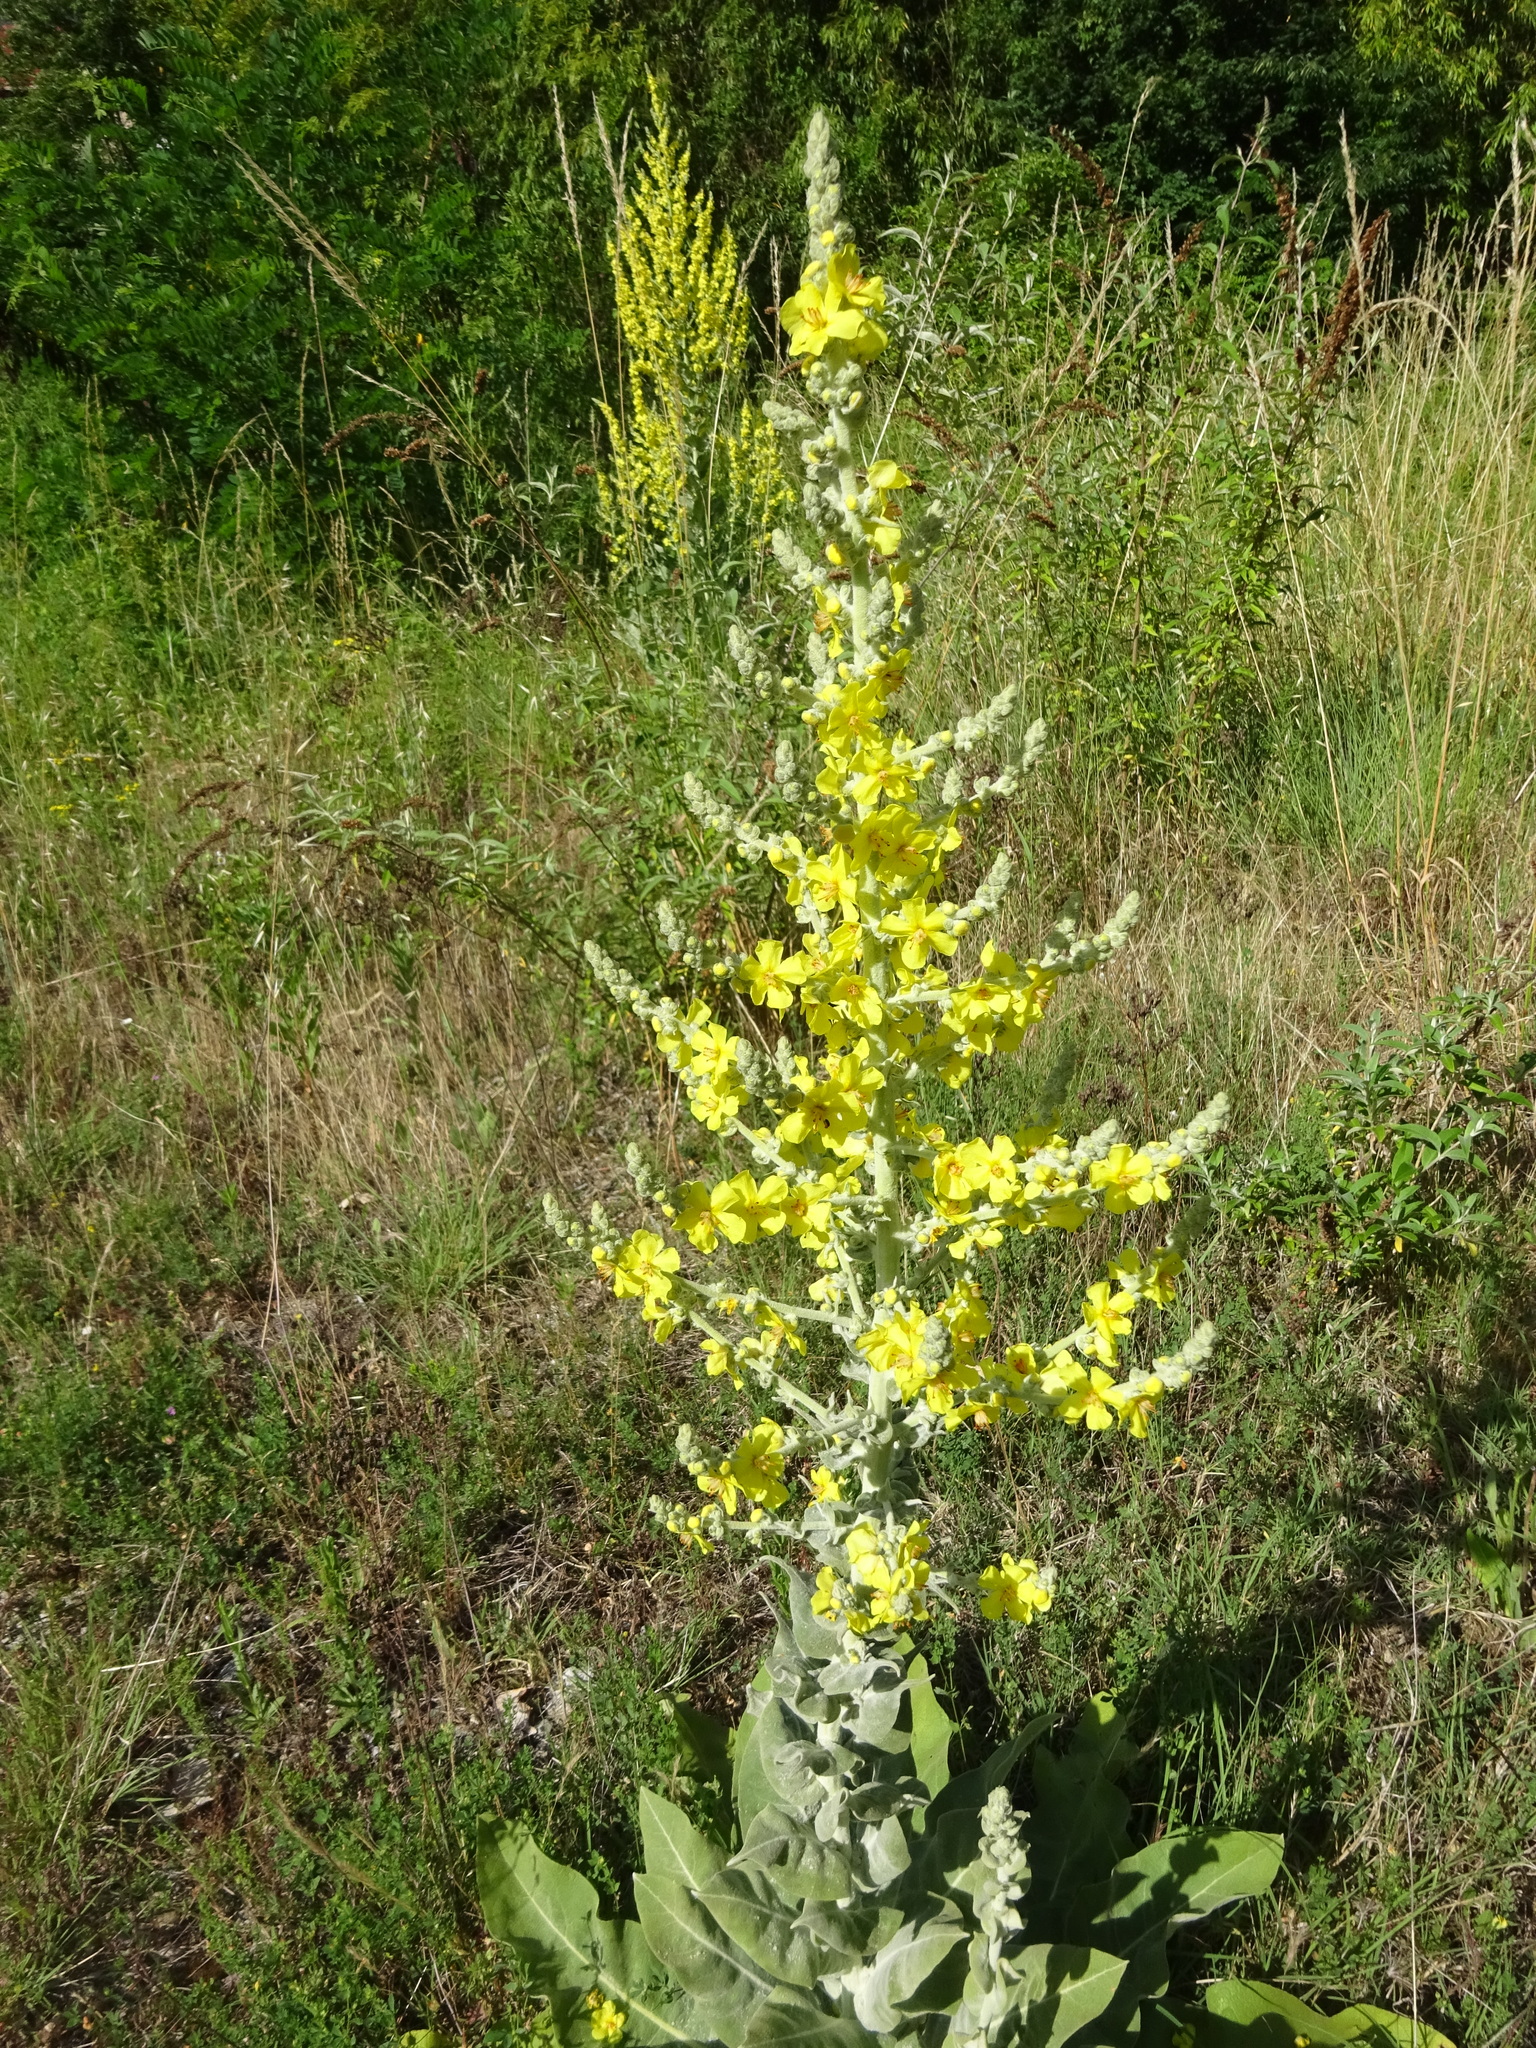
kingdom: Plantae
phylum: Tracheophyta
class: Magnoliopsida
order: Lamiales
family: Scrophulariaceae
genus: Verbascum
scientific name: Verbascum pulverulentum
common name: Broad-leaf mullein
